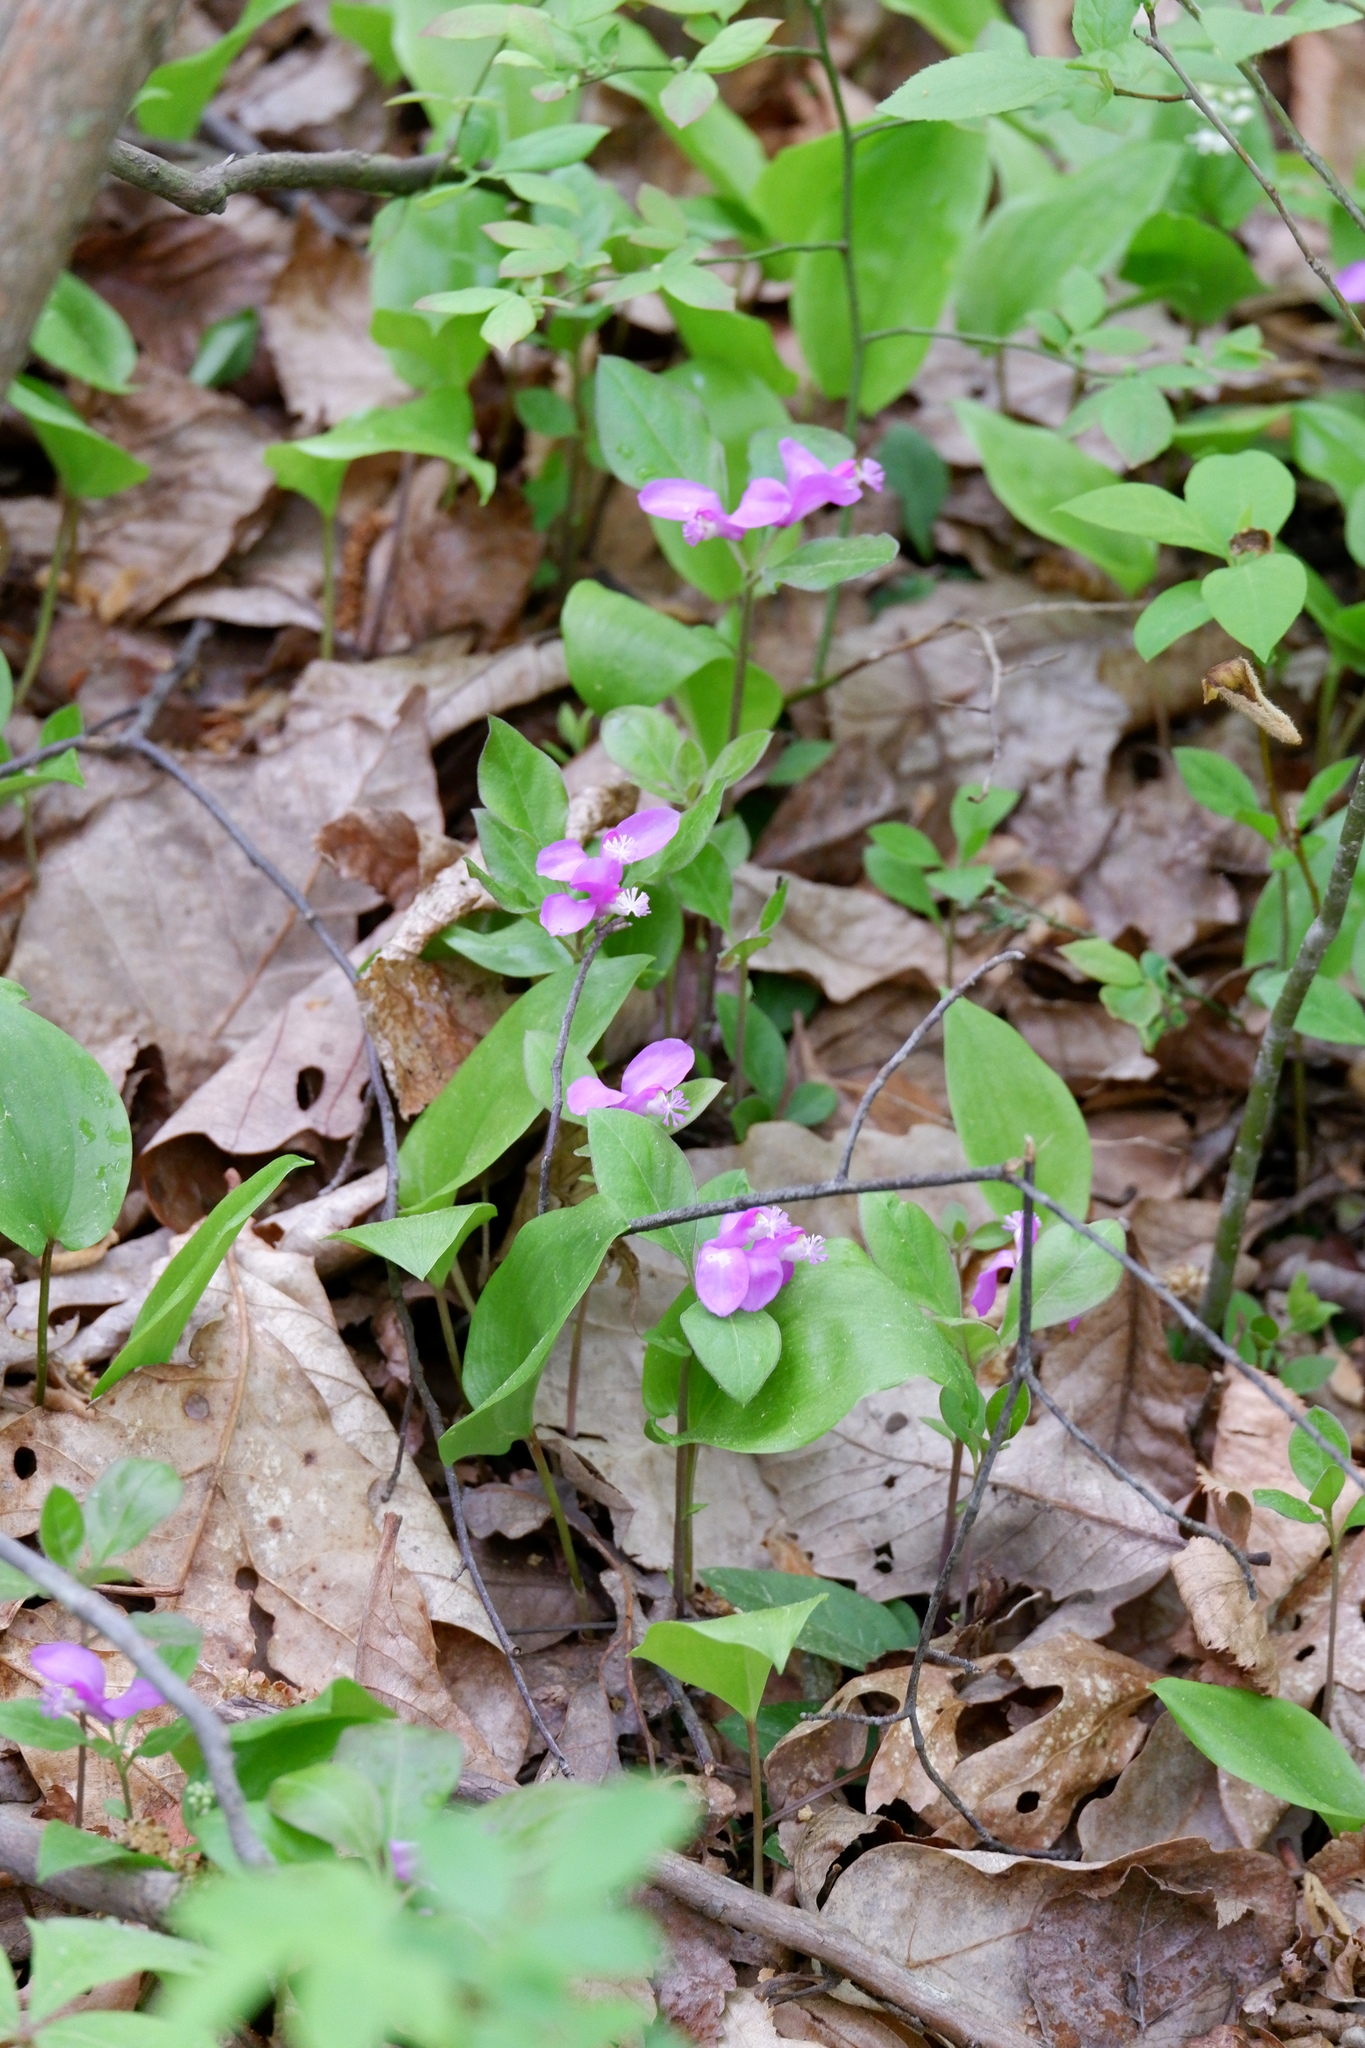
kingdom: Plantae
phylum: Tracheophyta
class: Magnoliopsida
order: Fabales
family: Polygalaceae
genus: Polygaloides
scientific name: Polygaloides paucifolia
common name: Bird-on-the-wing
